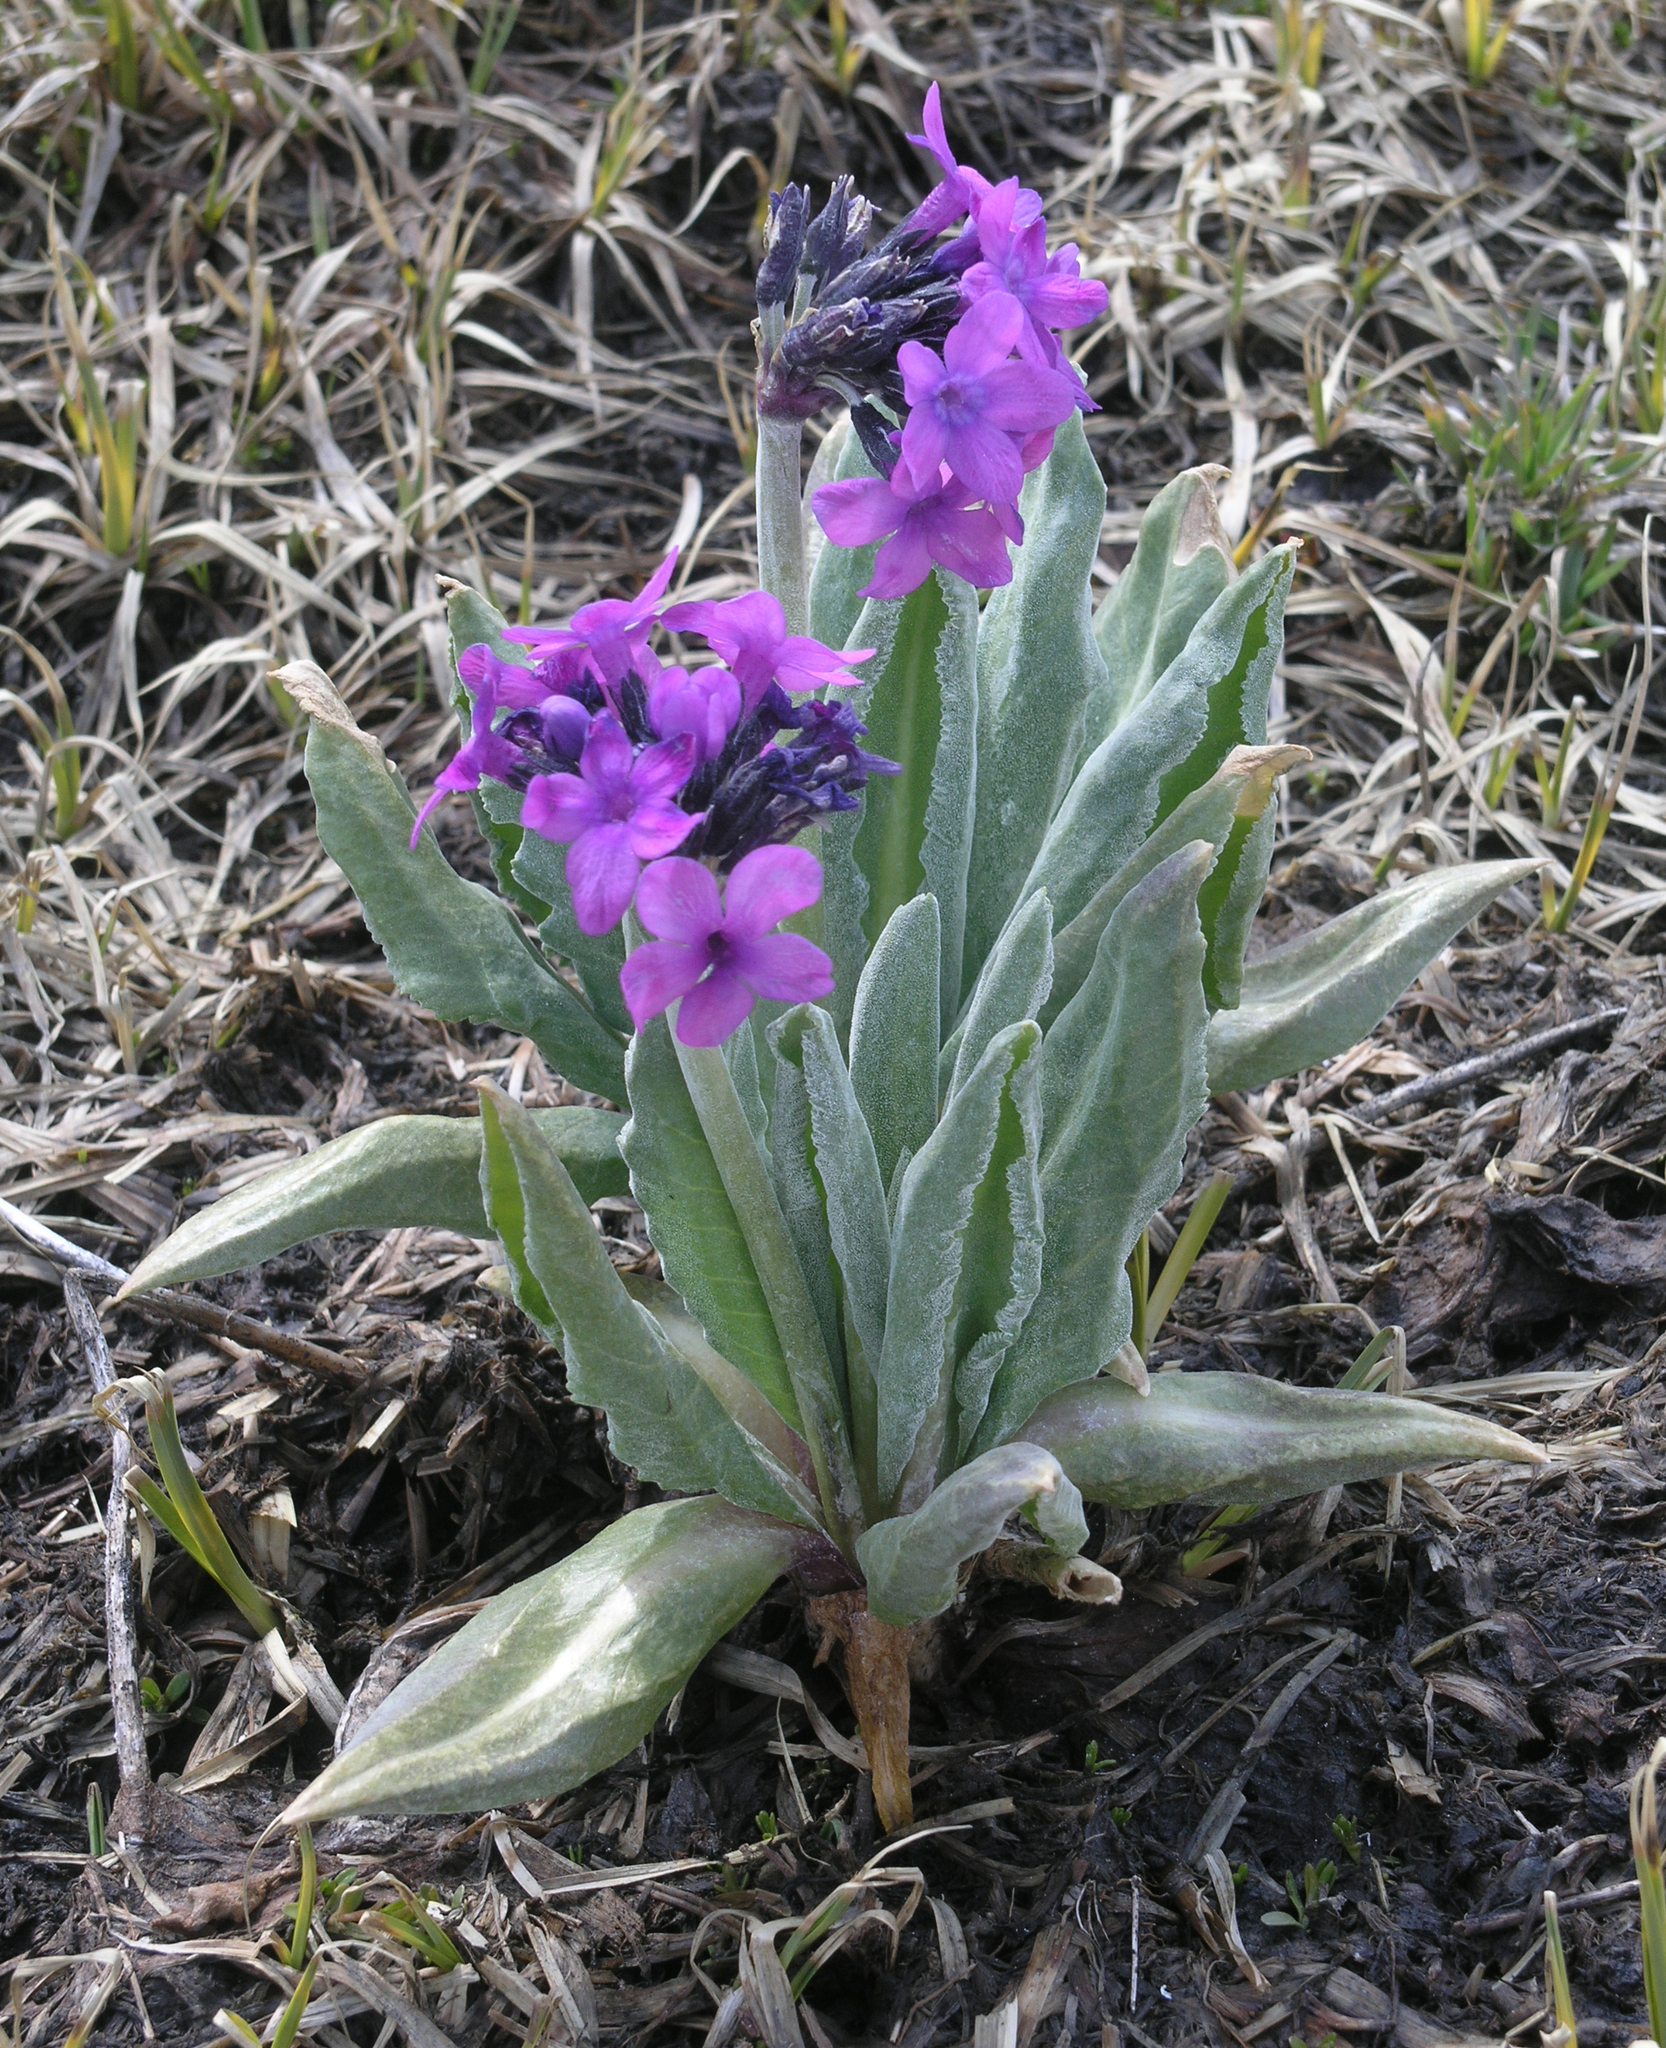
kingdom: Plantae
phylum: Tracheophyta
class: Magnoliopsida
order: Ericales
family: Primulaceae
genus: Primula
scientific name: Primula nivalis
